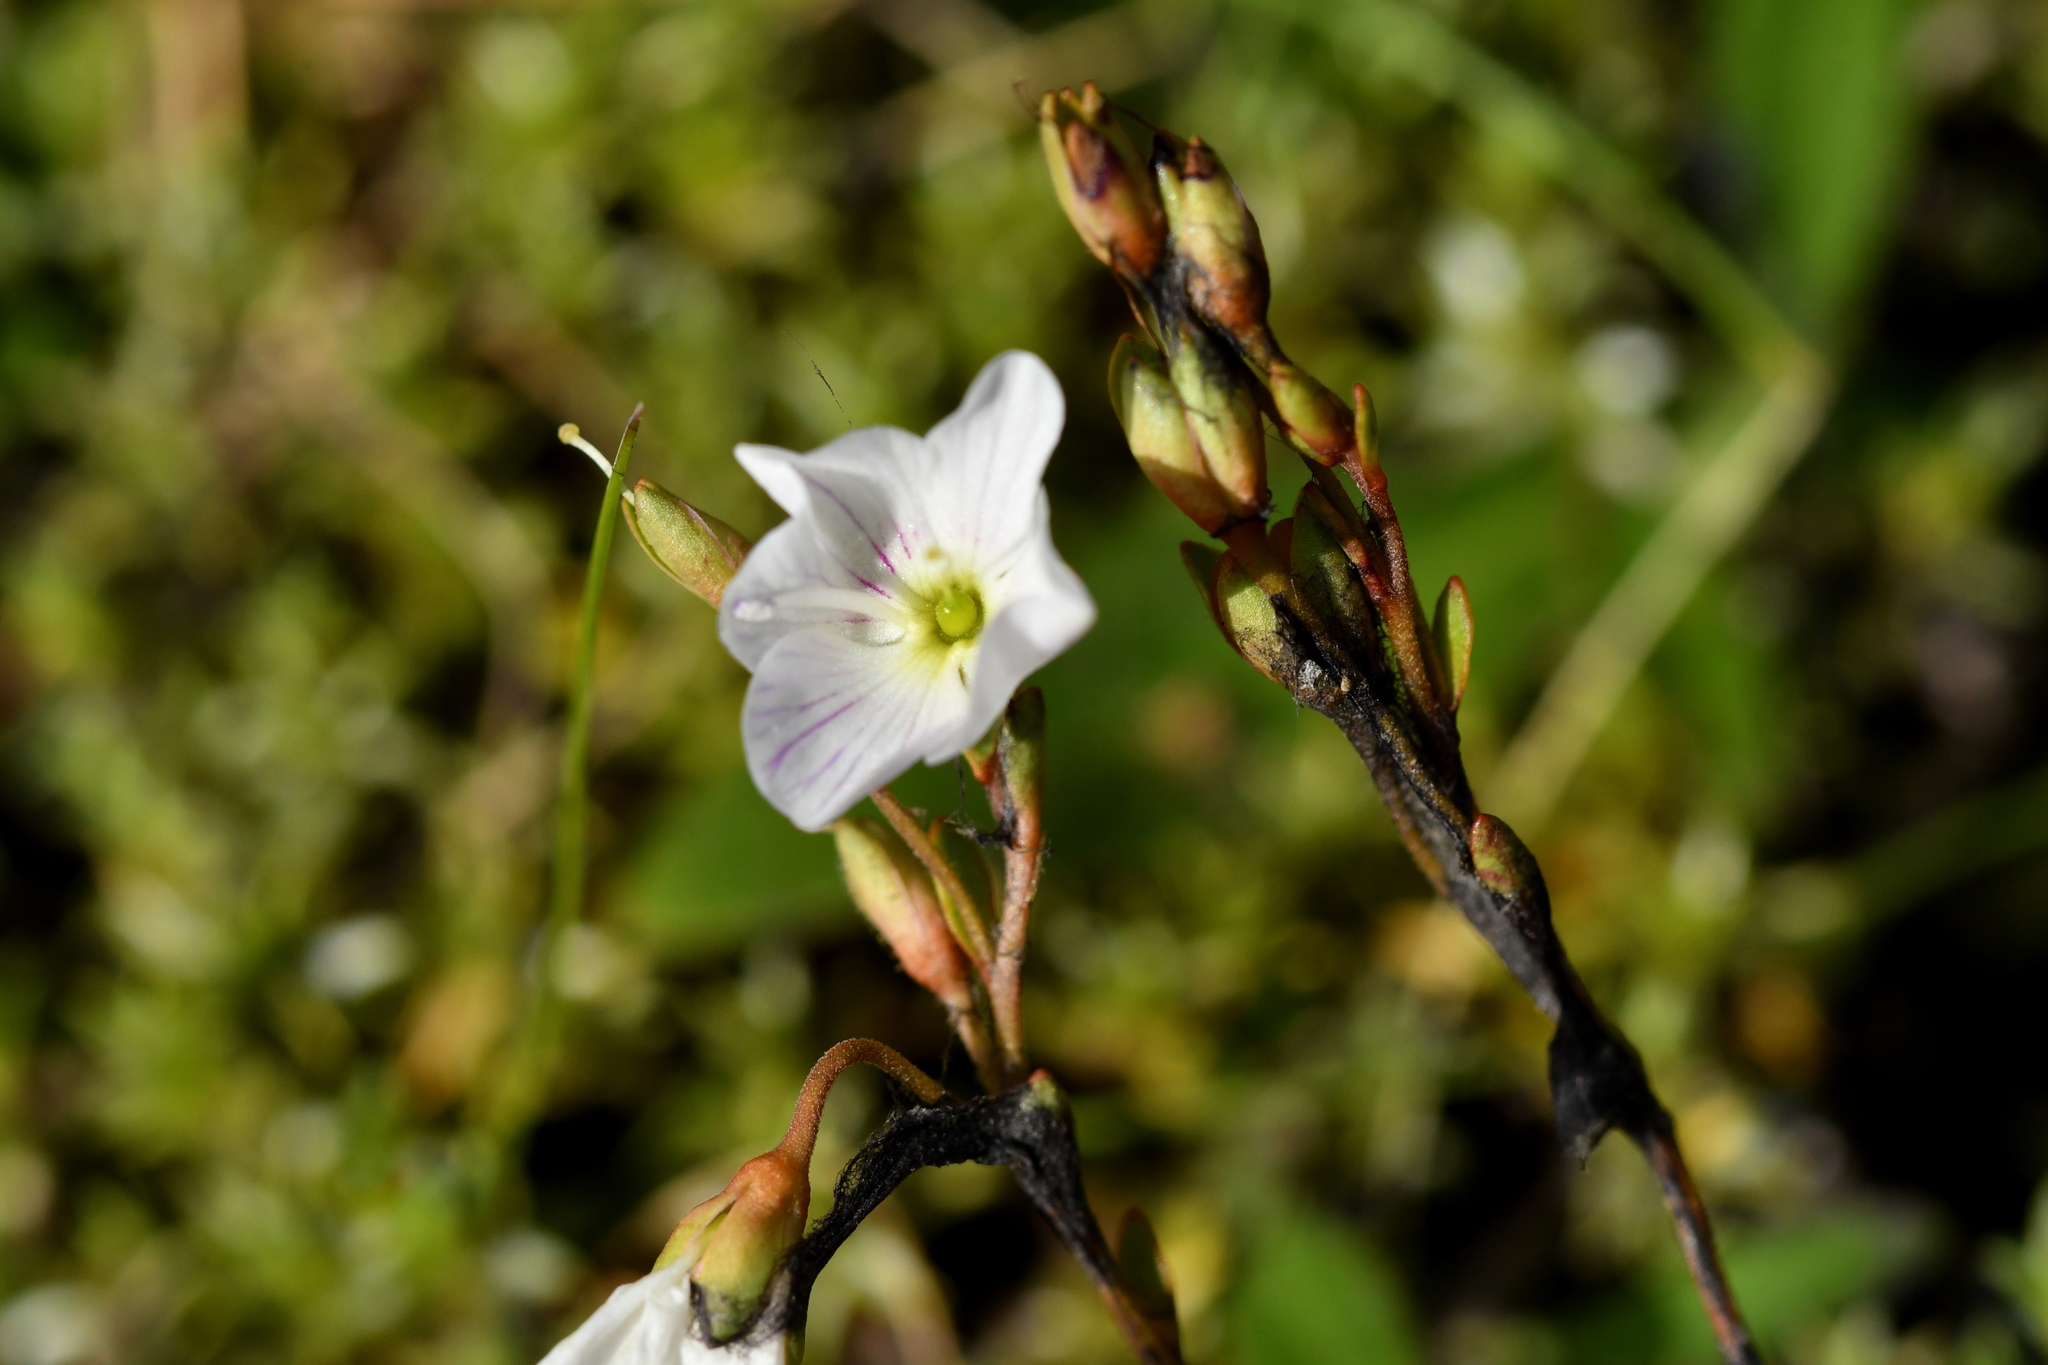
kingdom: Plantae
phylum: Tracheophyta
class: Magnoliopsida
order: Lamiales
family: Plantaginaceae
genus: Veronica
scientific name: Veronica lyallii
